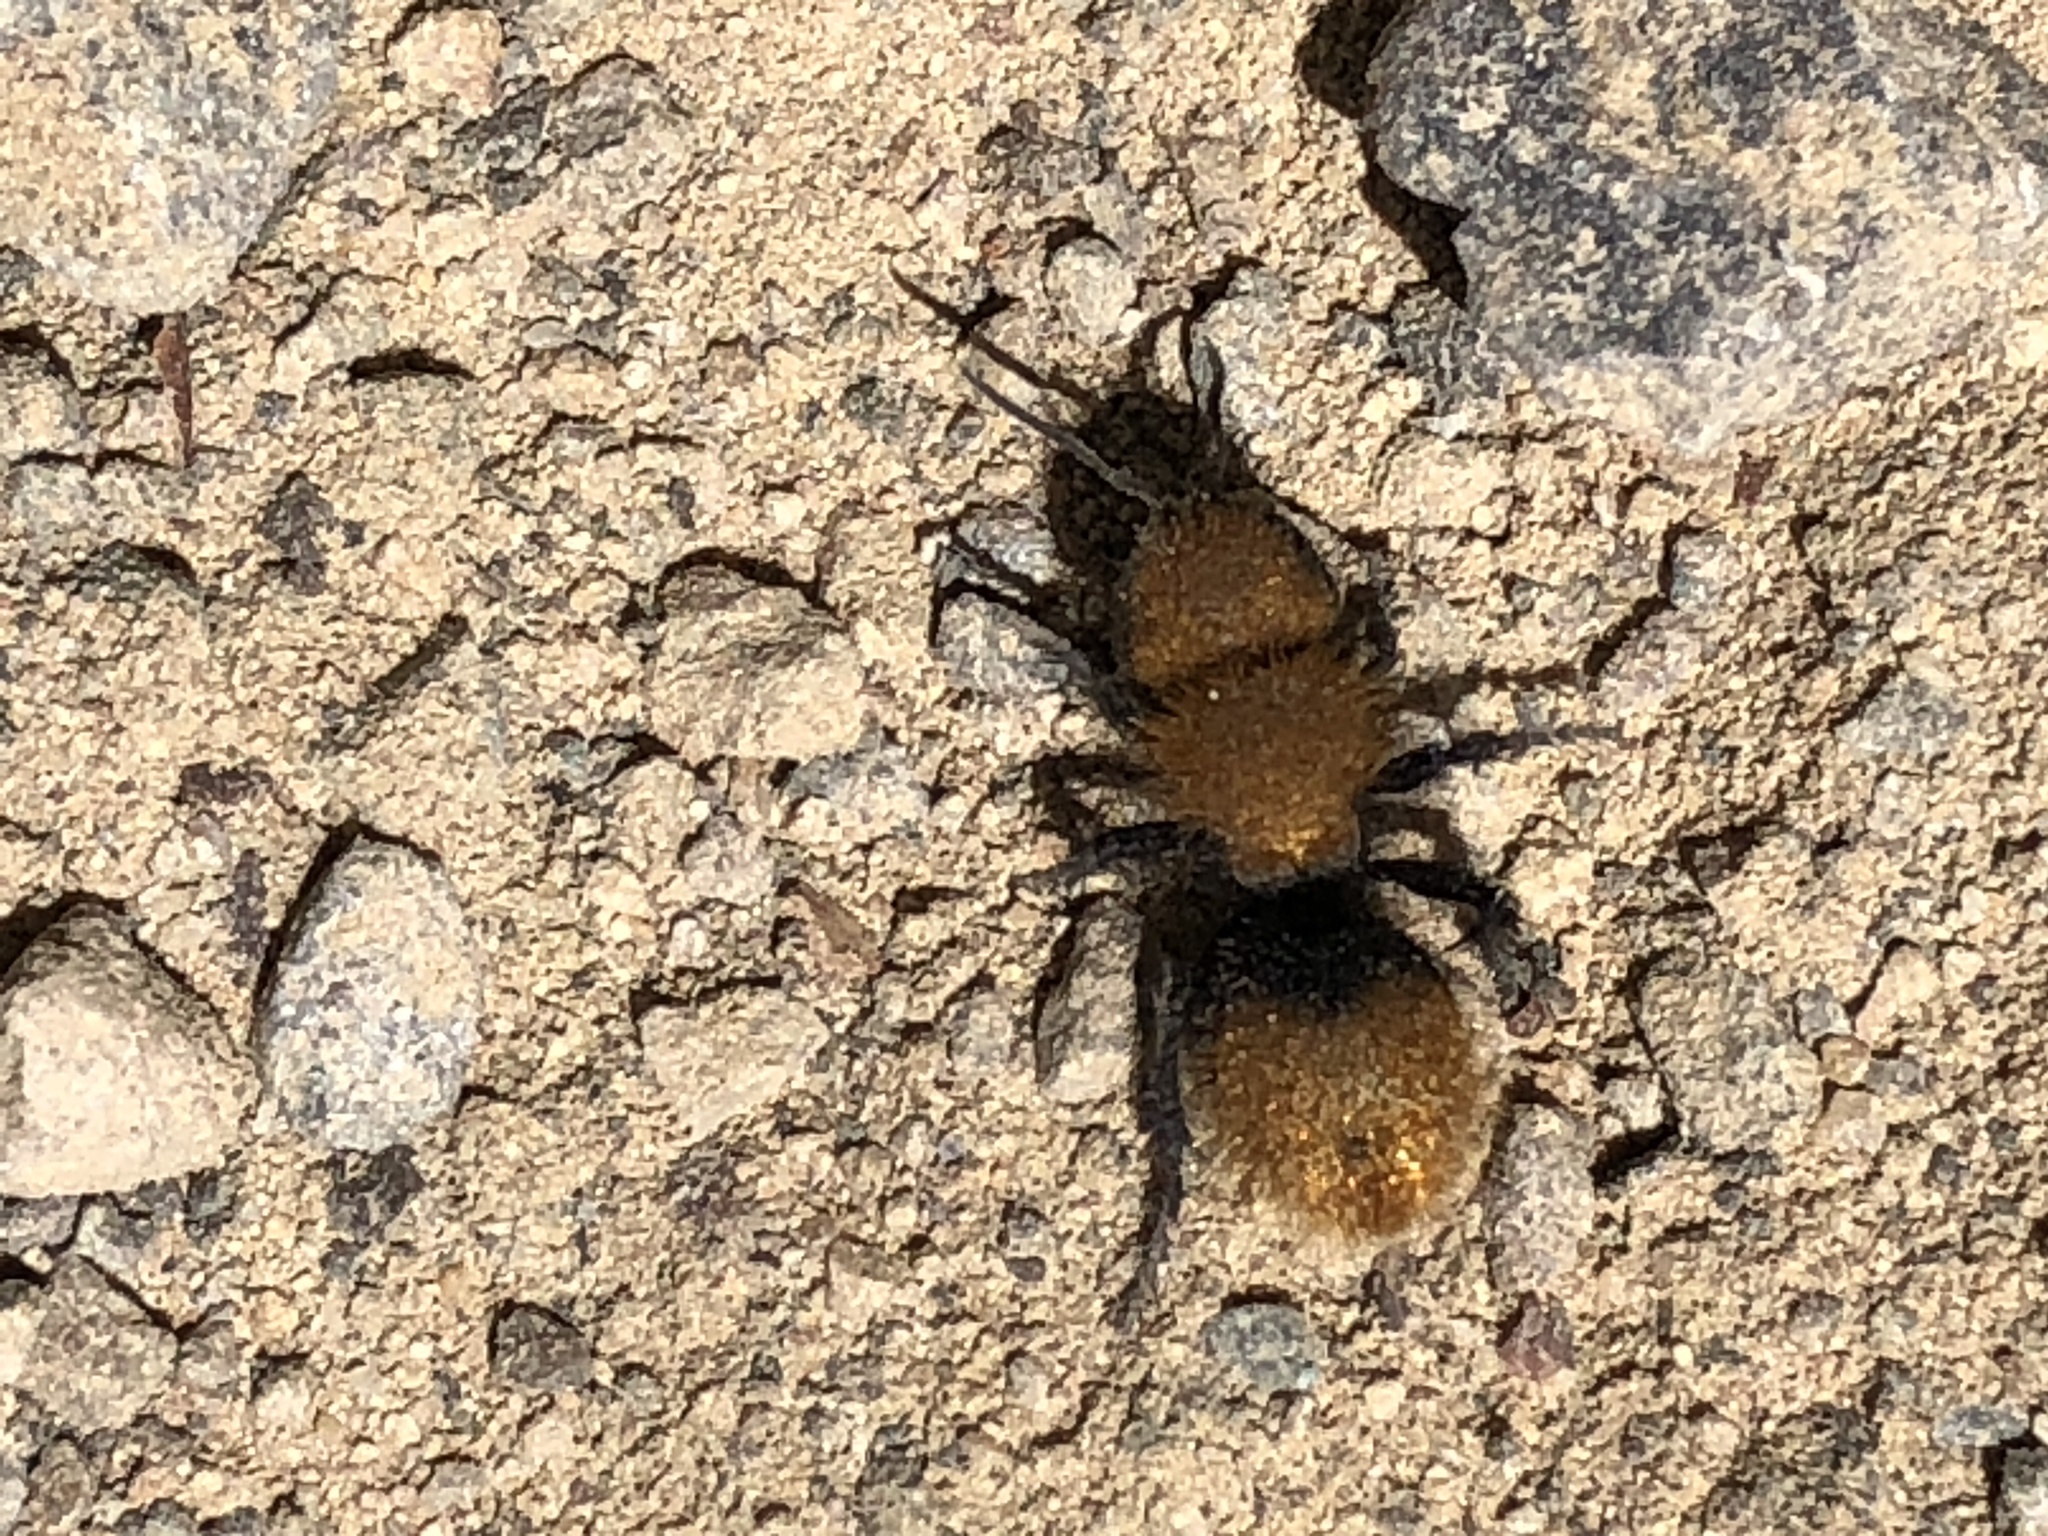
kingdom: Animalia
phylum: Arthropoda
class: Insecta
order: Hymenoptera
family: Mutillidae
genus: Dasymutilla
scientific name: Dasymutilla
